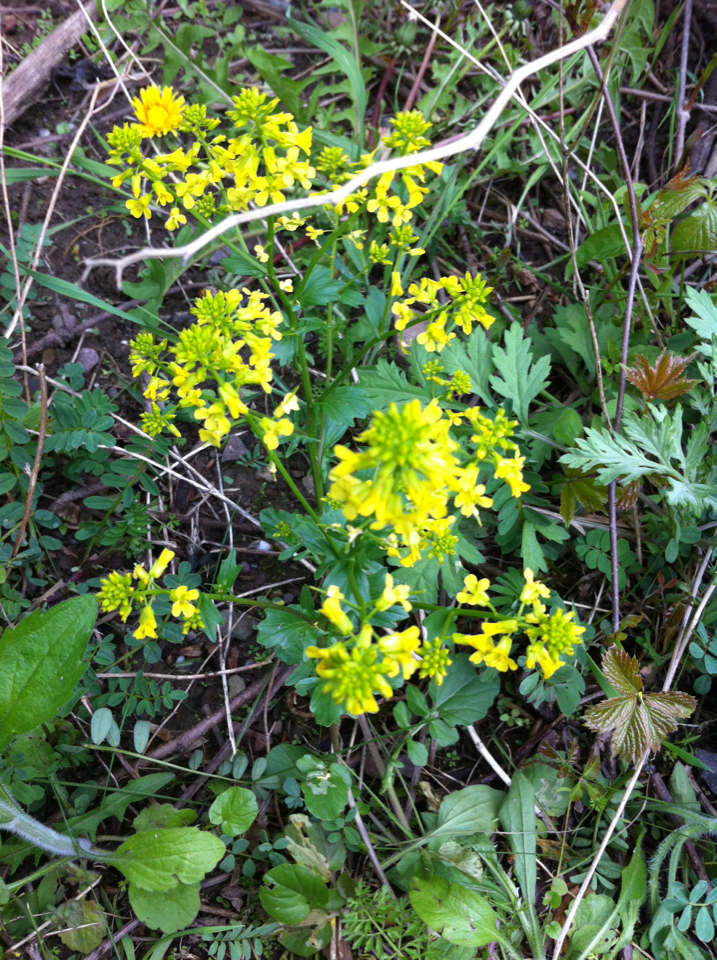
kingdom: Plantae
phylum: Tracheophyta
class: Magnoliopsida
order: Brassicales
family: Brassicaceae
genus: Barbarea
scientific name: Barbarea vulgaris
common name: Cressy-greens
